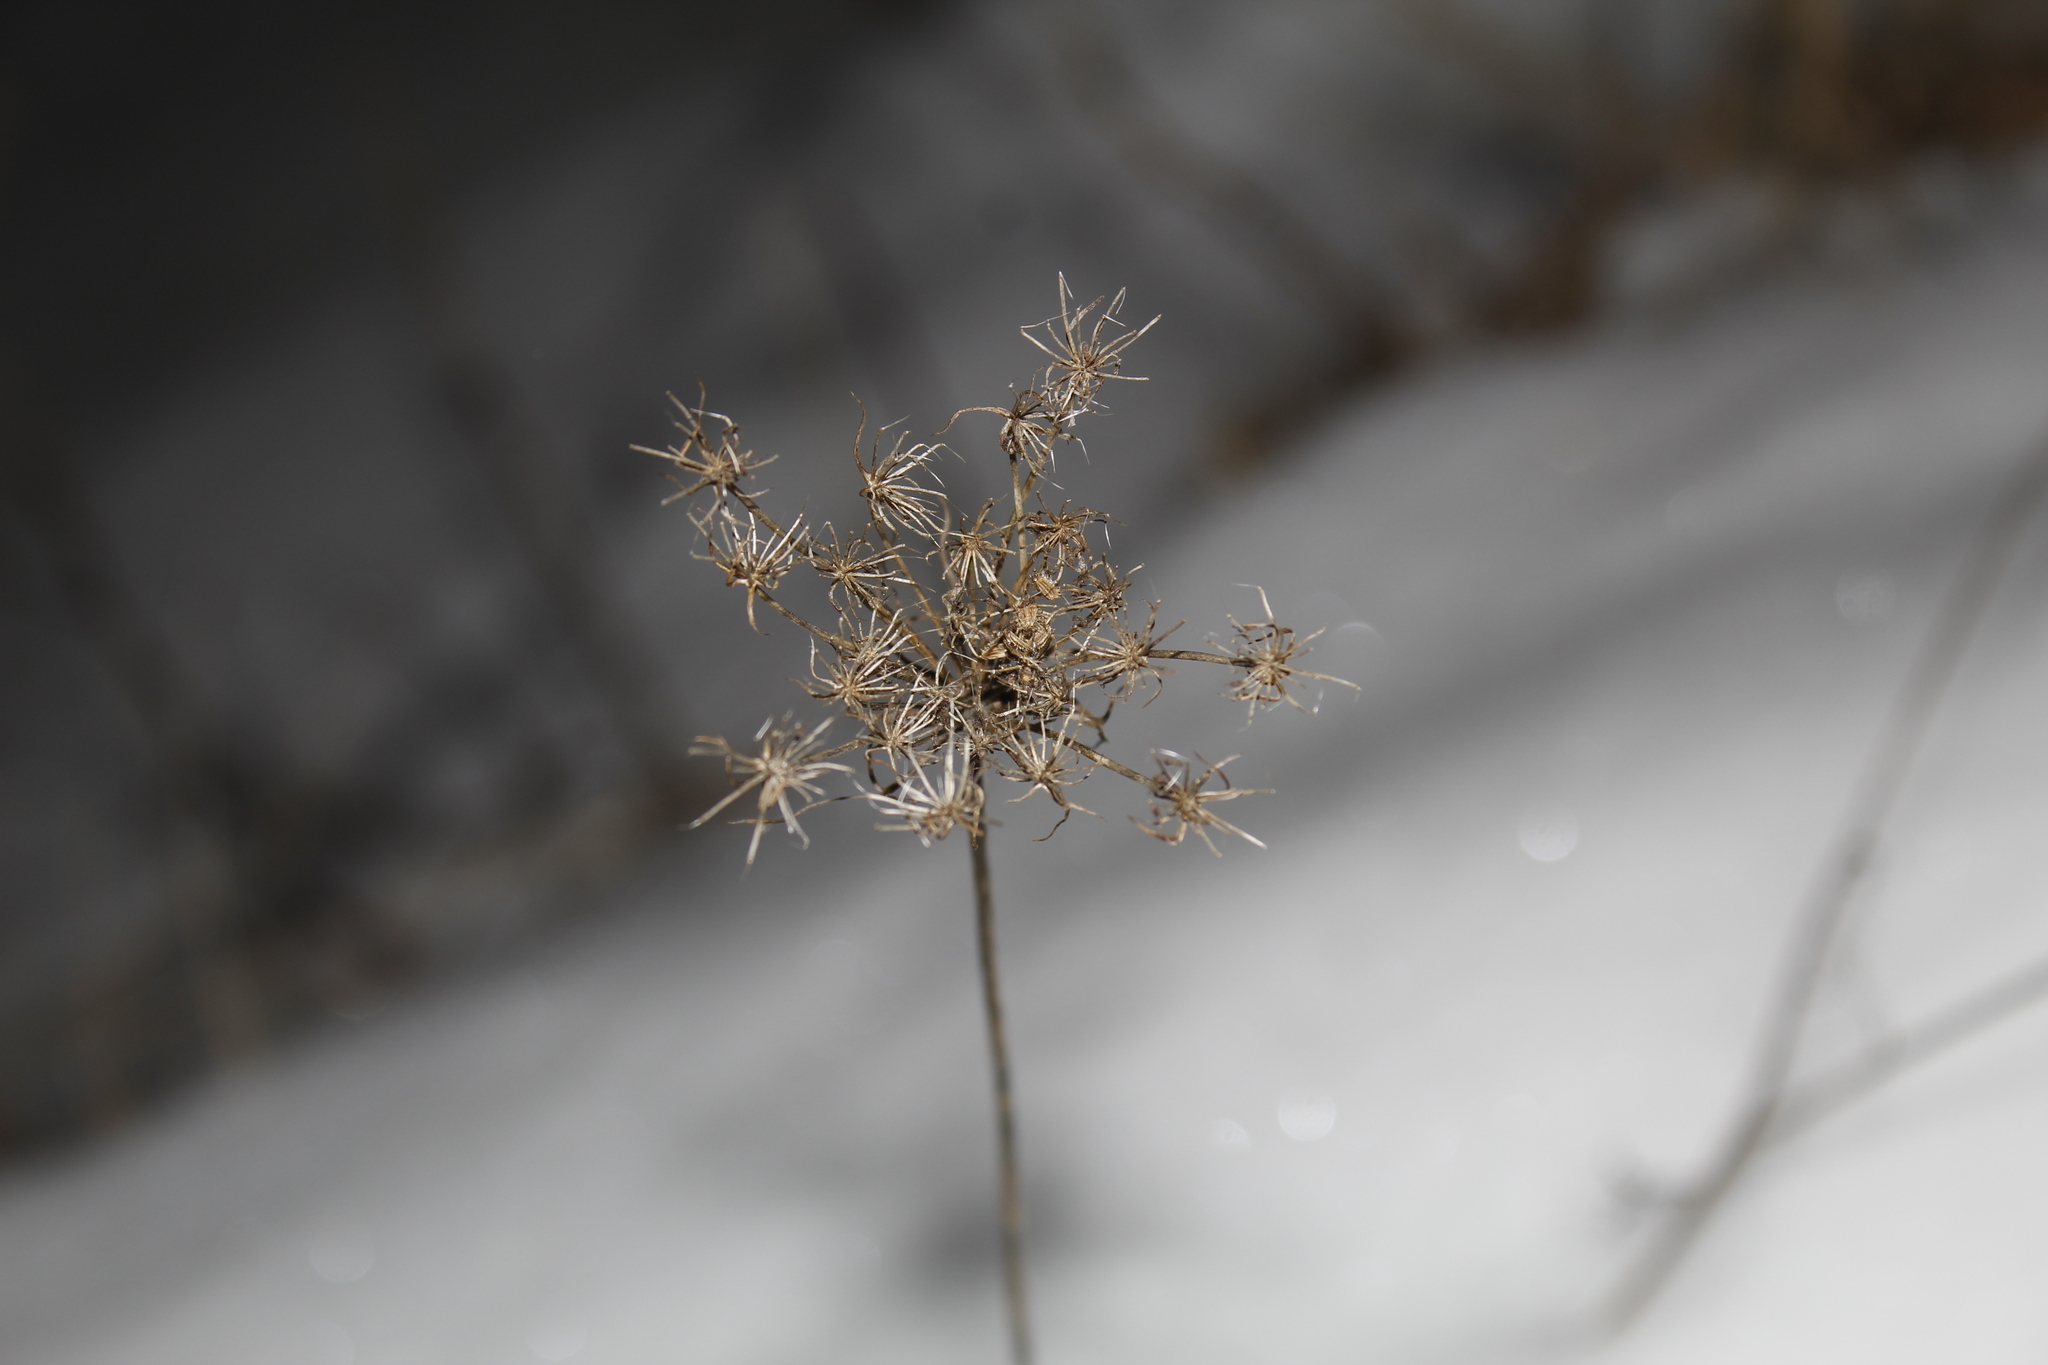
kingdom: Plantae
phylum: Tracheophyta
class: Magnoliopsida
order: Apiales
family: Apiaceae
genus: Daucus
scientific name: Daucus carota
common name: Wild carrot
